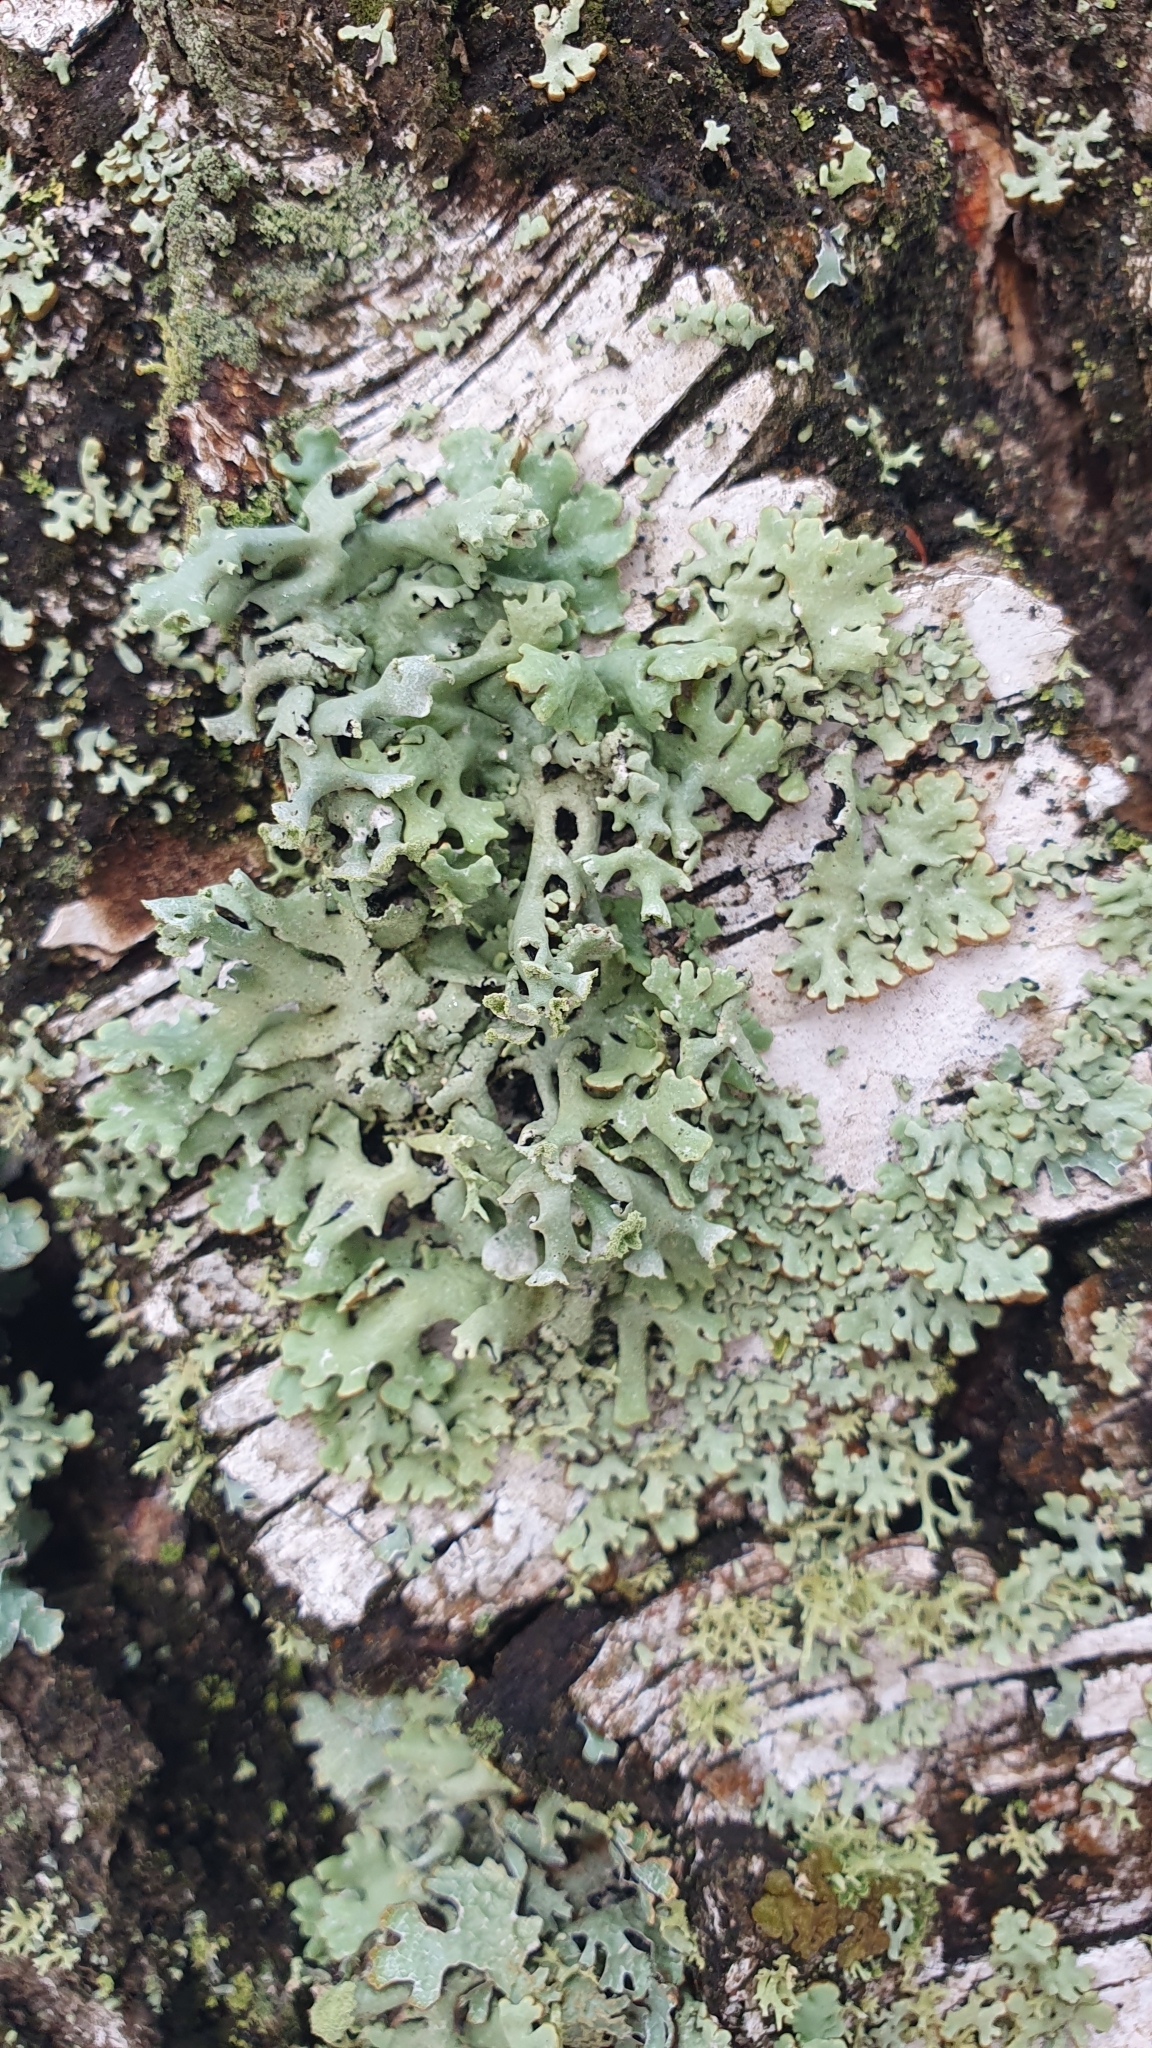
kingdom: Fungi
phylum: Ascomycota
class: Lecanoromycetes
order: Lecanorales
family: Parmeliaceae
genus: Hypogymnia
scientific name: Hypogymnia physodes
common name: Dark crottle
